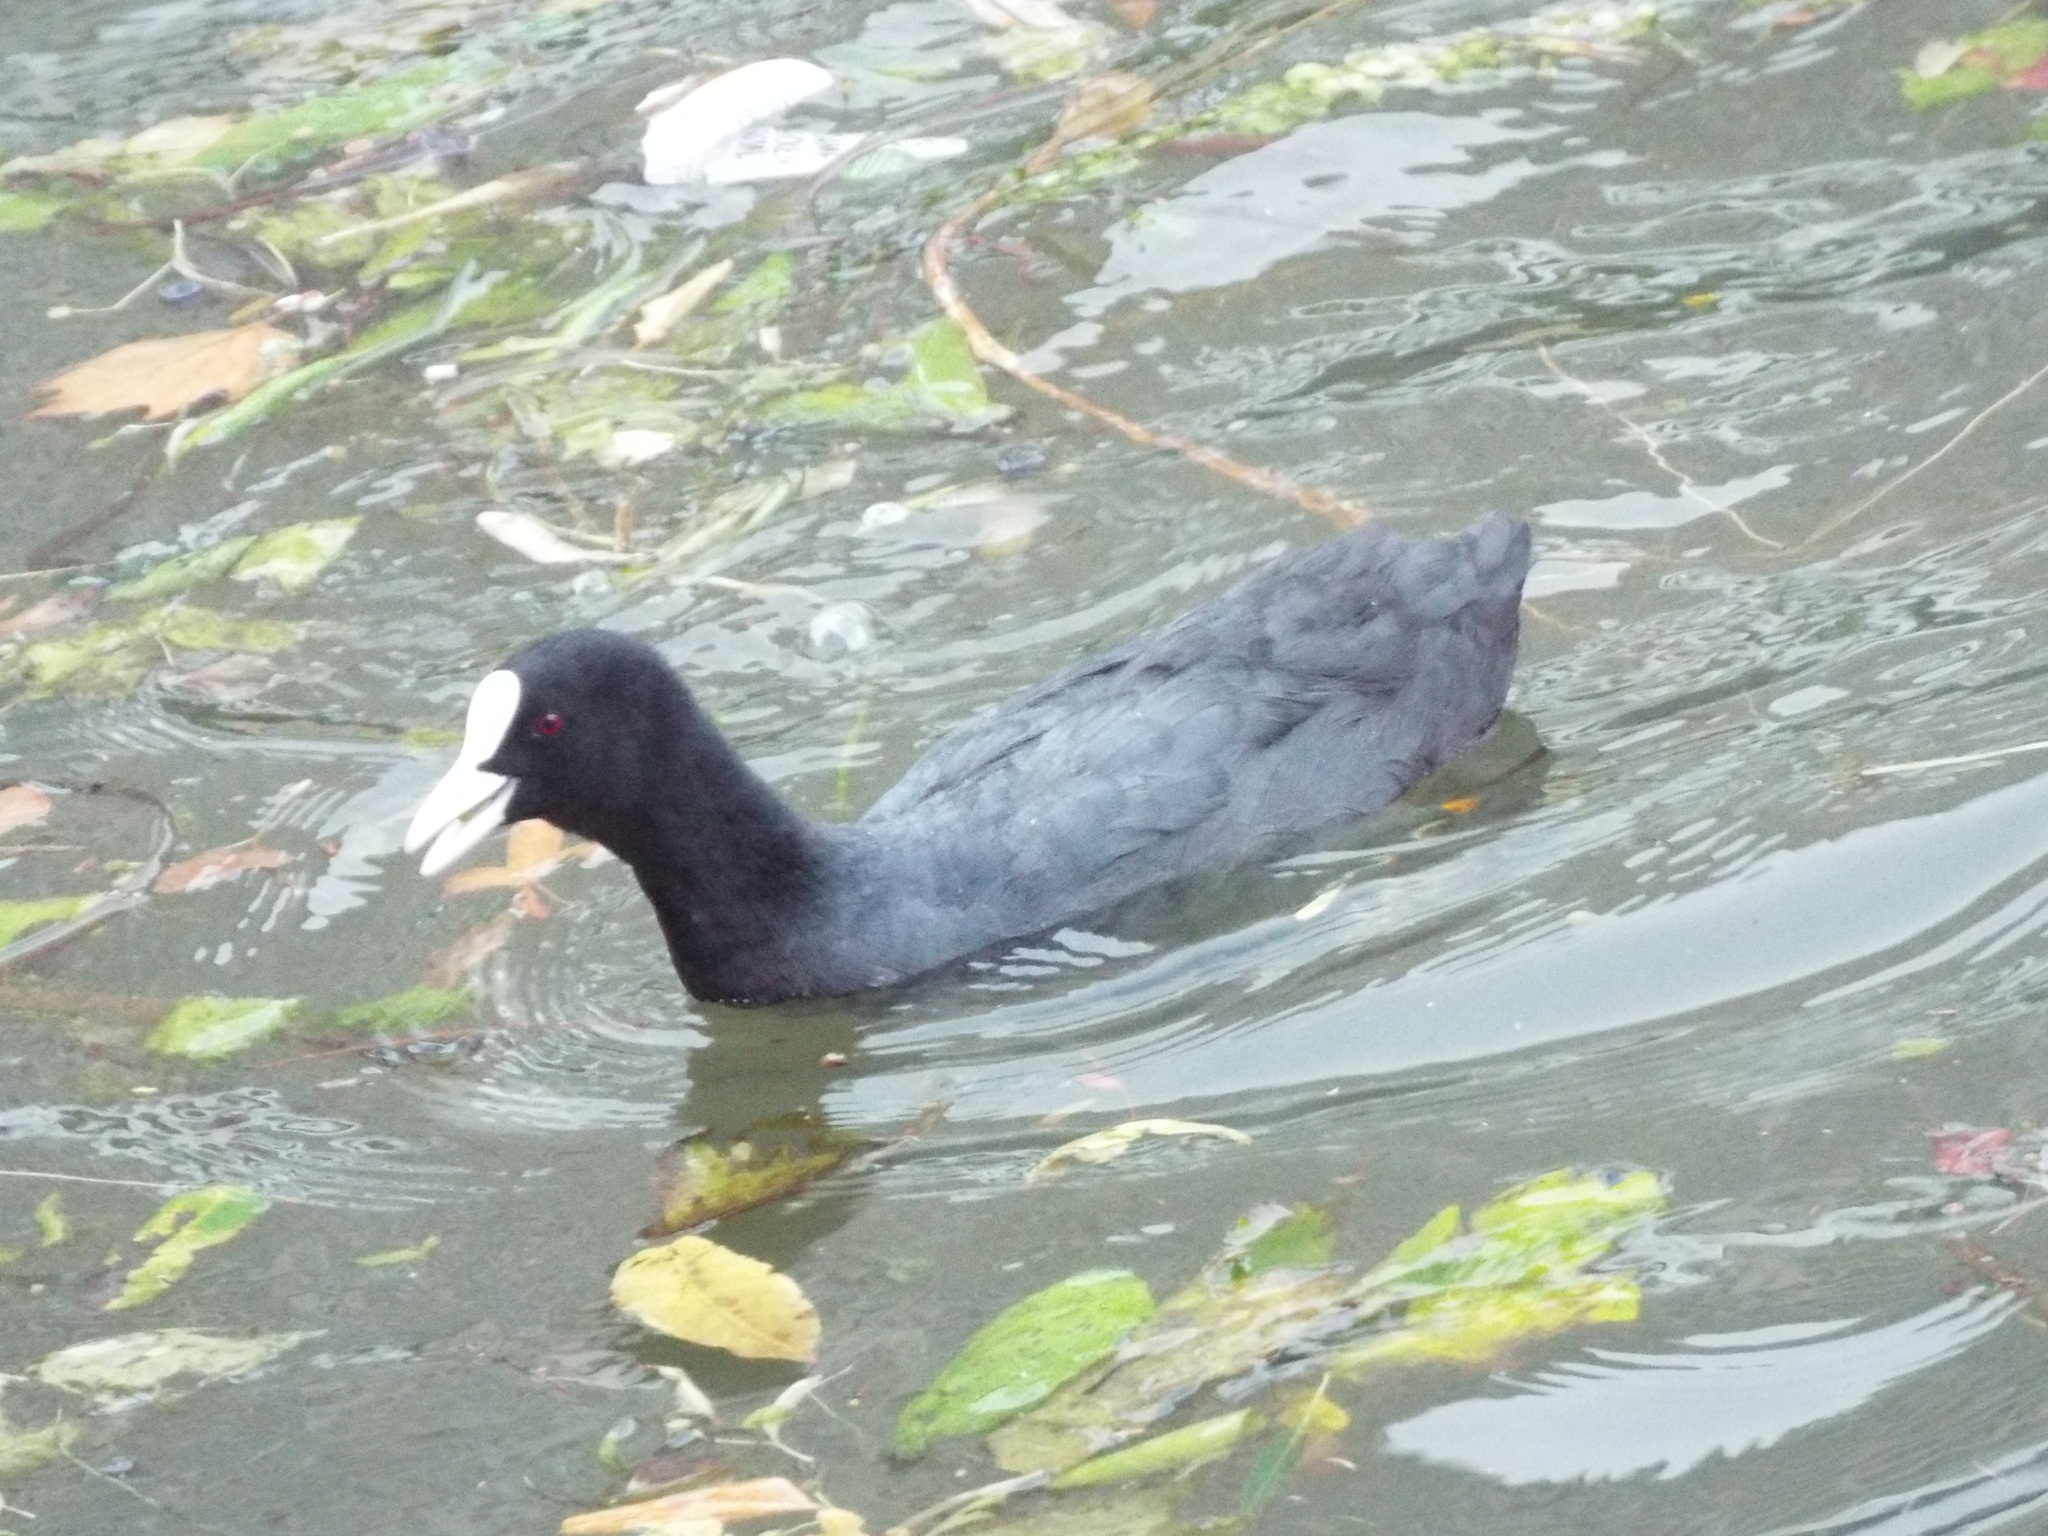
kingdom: Animalia
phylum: Chordata
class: Aves
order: Gruiformes
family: Rallidae
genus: Fulica
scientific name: Fulica atra
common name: Eurasian coot
